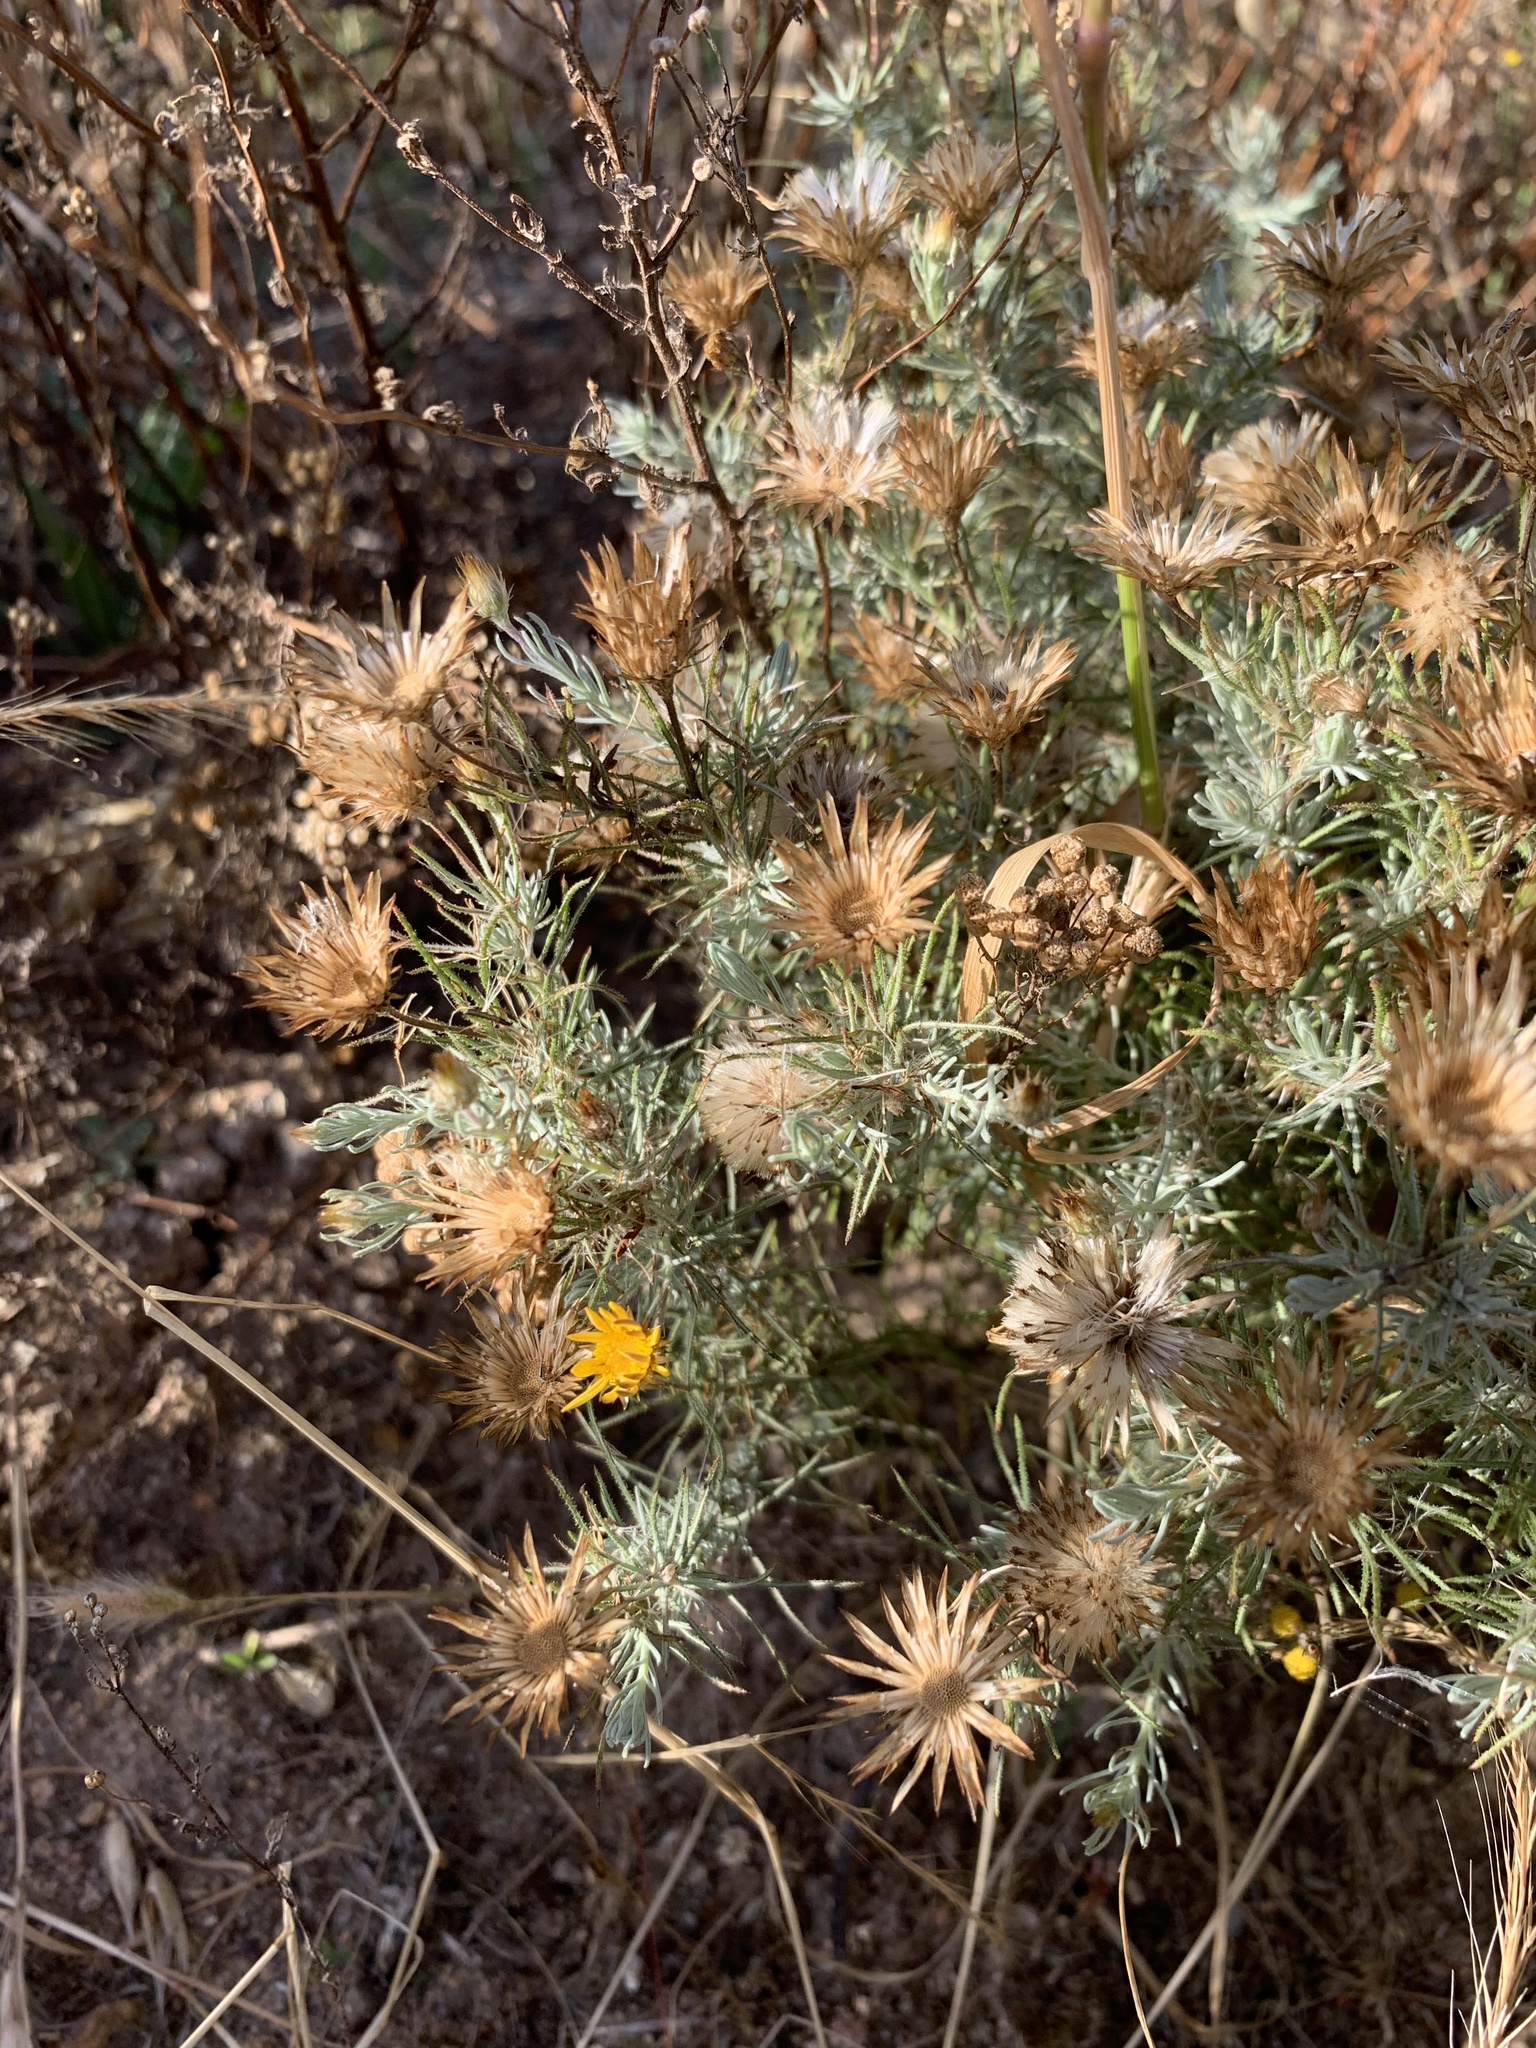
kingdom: Plantae
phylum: Tracheophyta
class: Magnoliopsida
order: Asterales
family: Asteraceae
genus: Leysera
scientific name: Leysera gnaphalodes
